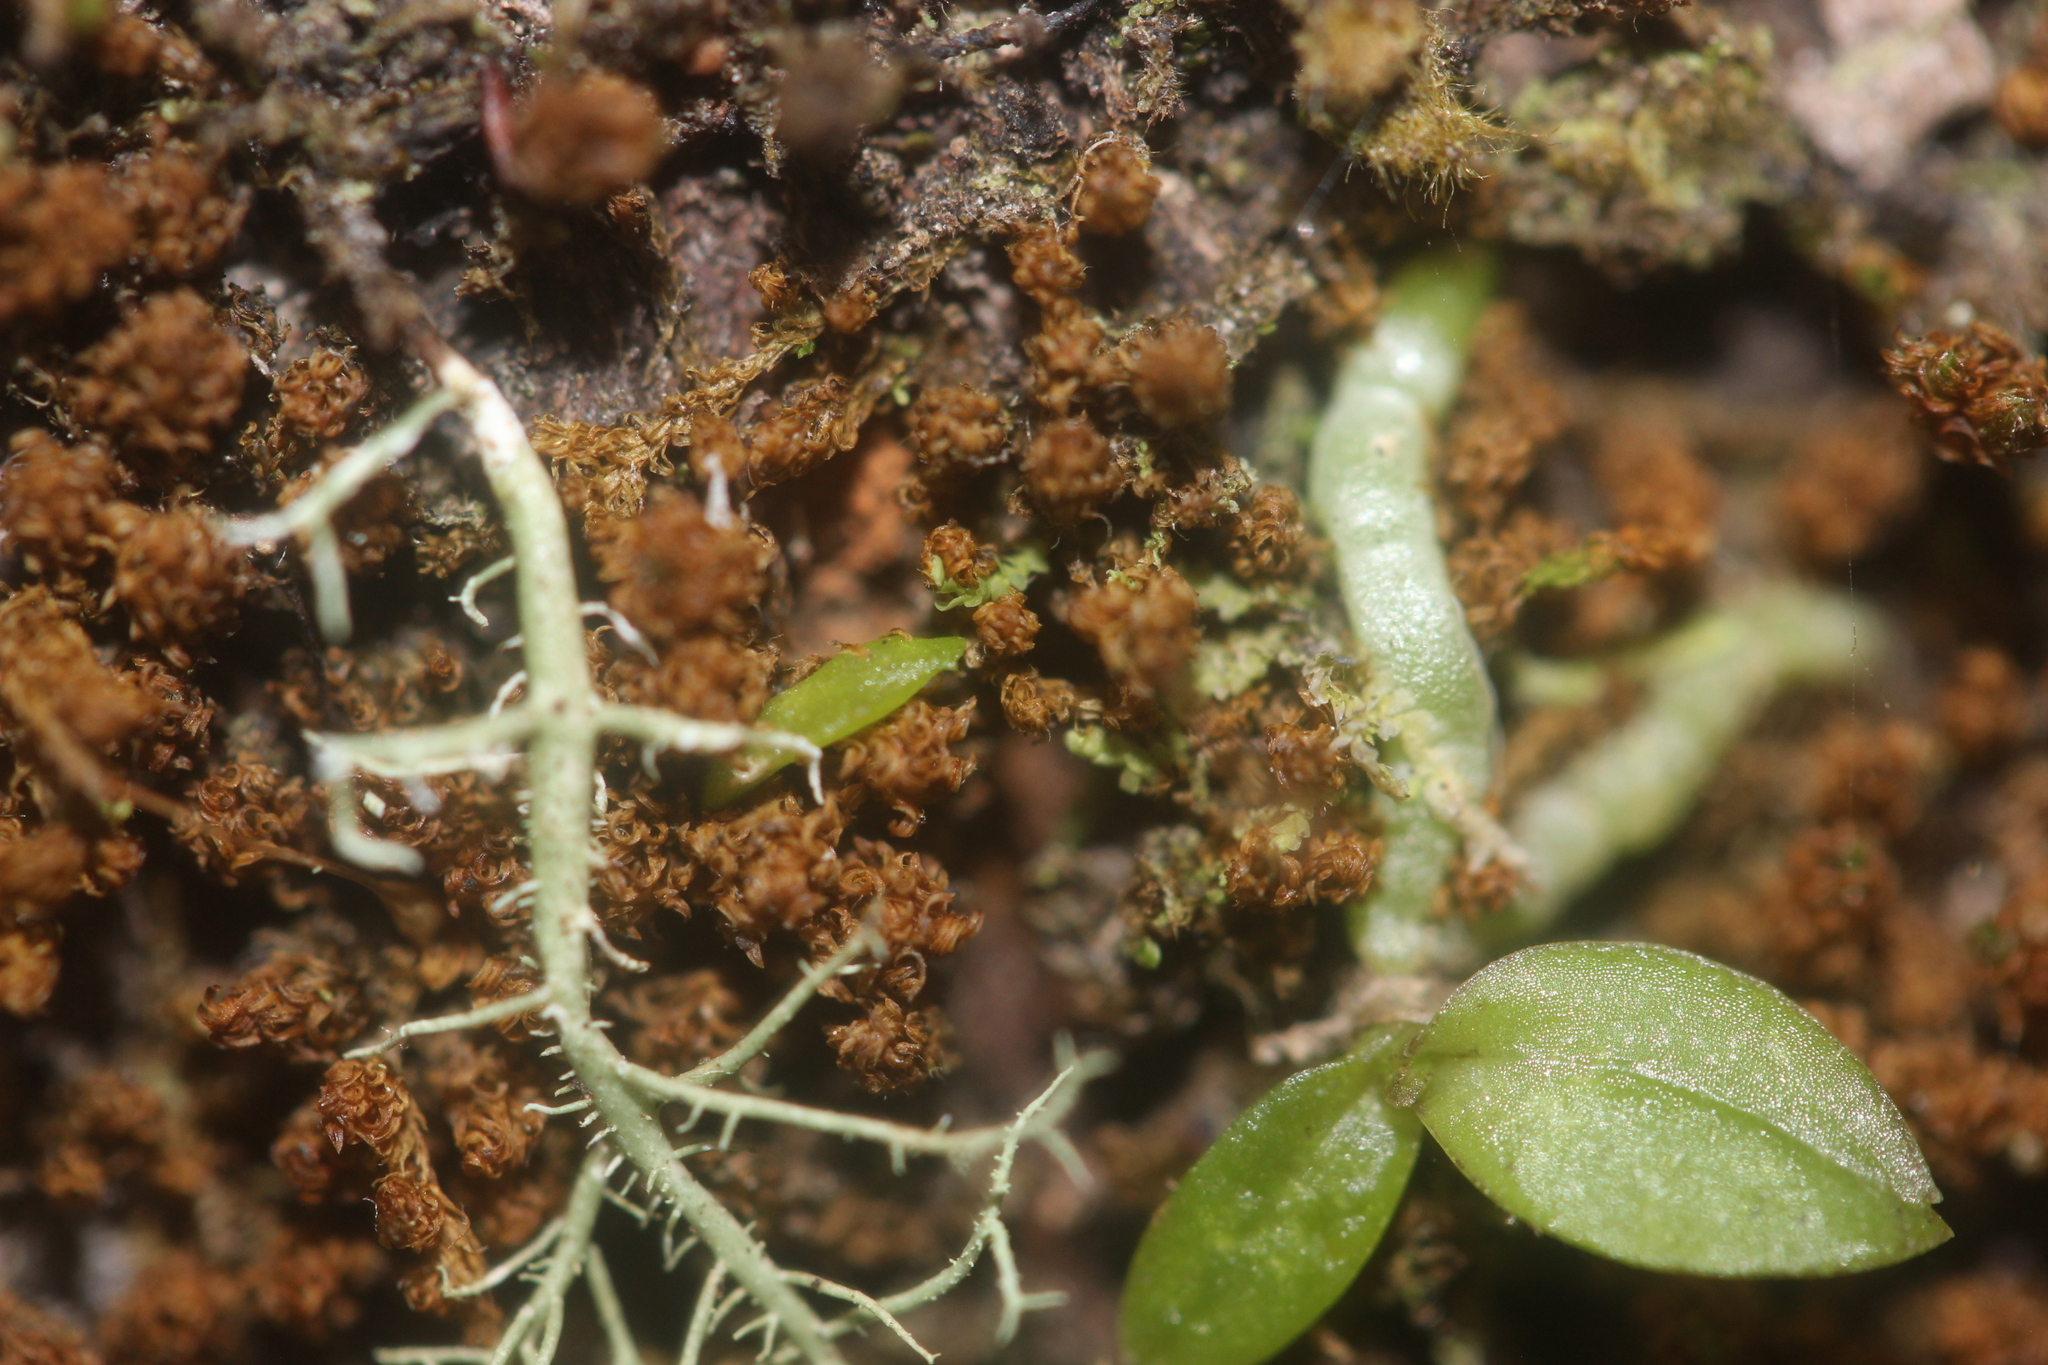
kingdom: Plantae
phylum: Tracheophyta
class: Liliopsida
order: Asparagales
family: Orchidaceae
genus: Drymoanthus
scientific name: Drymoanthus adversus
